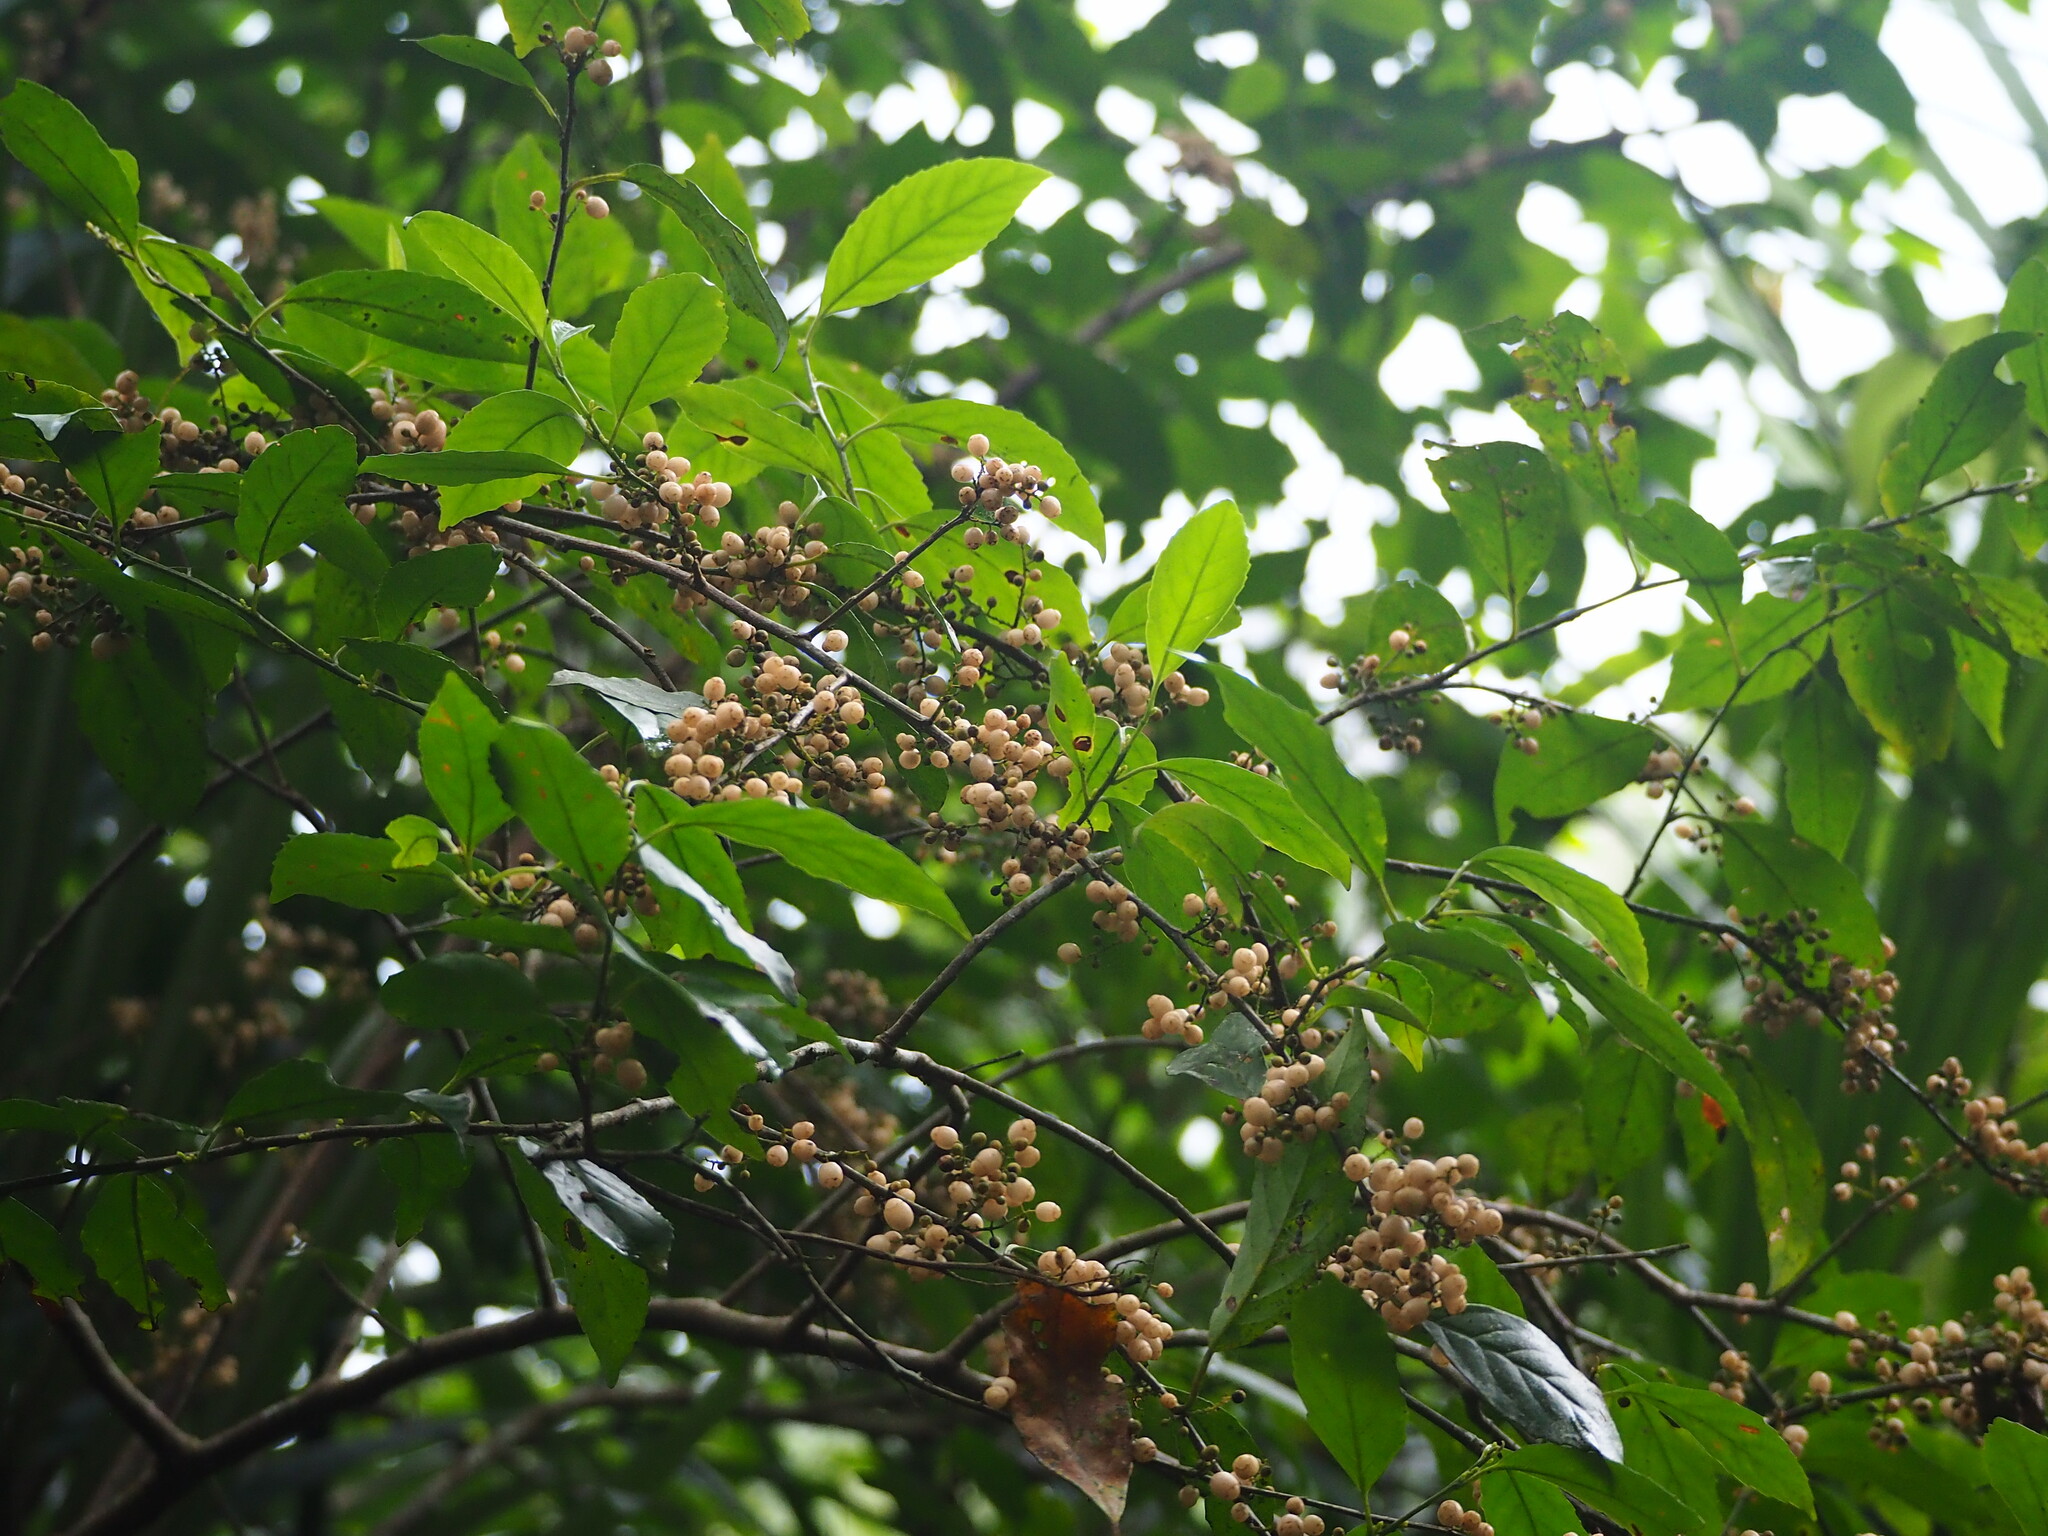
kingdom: Plantae
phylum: Tracheophyta
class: Magnoliopsida
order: Ericales
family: Primulaceae
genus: Maesa
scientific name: Maesa perlaria
